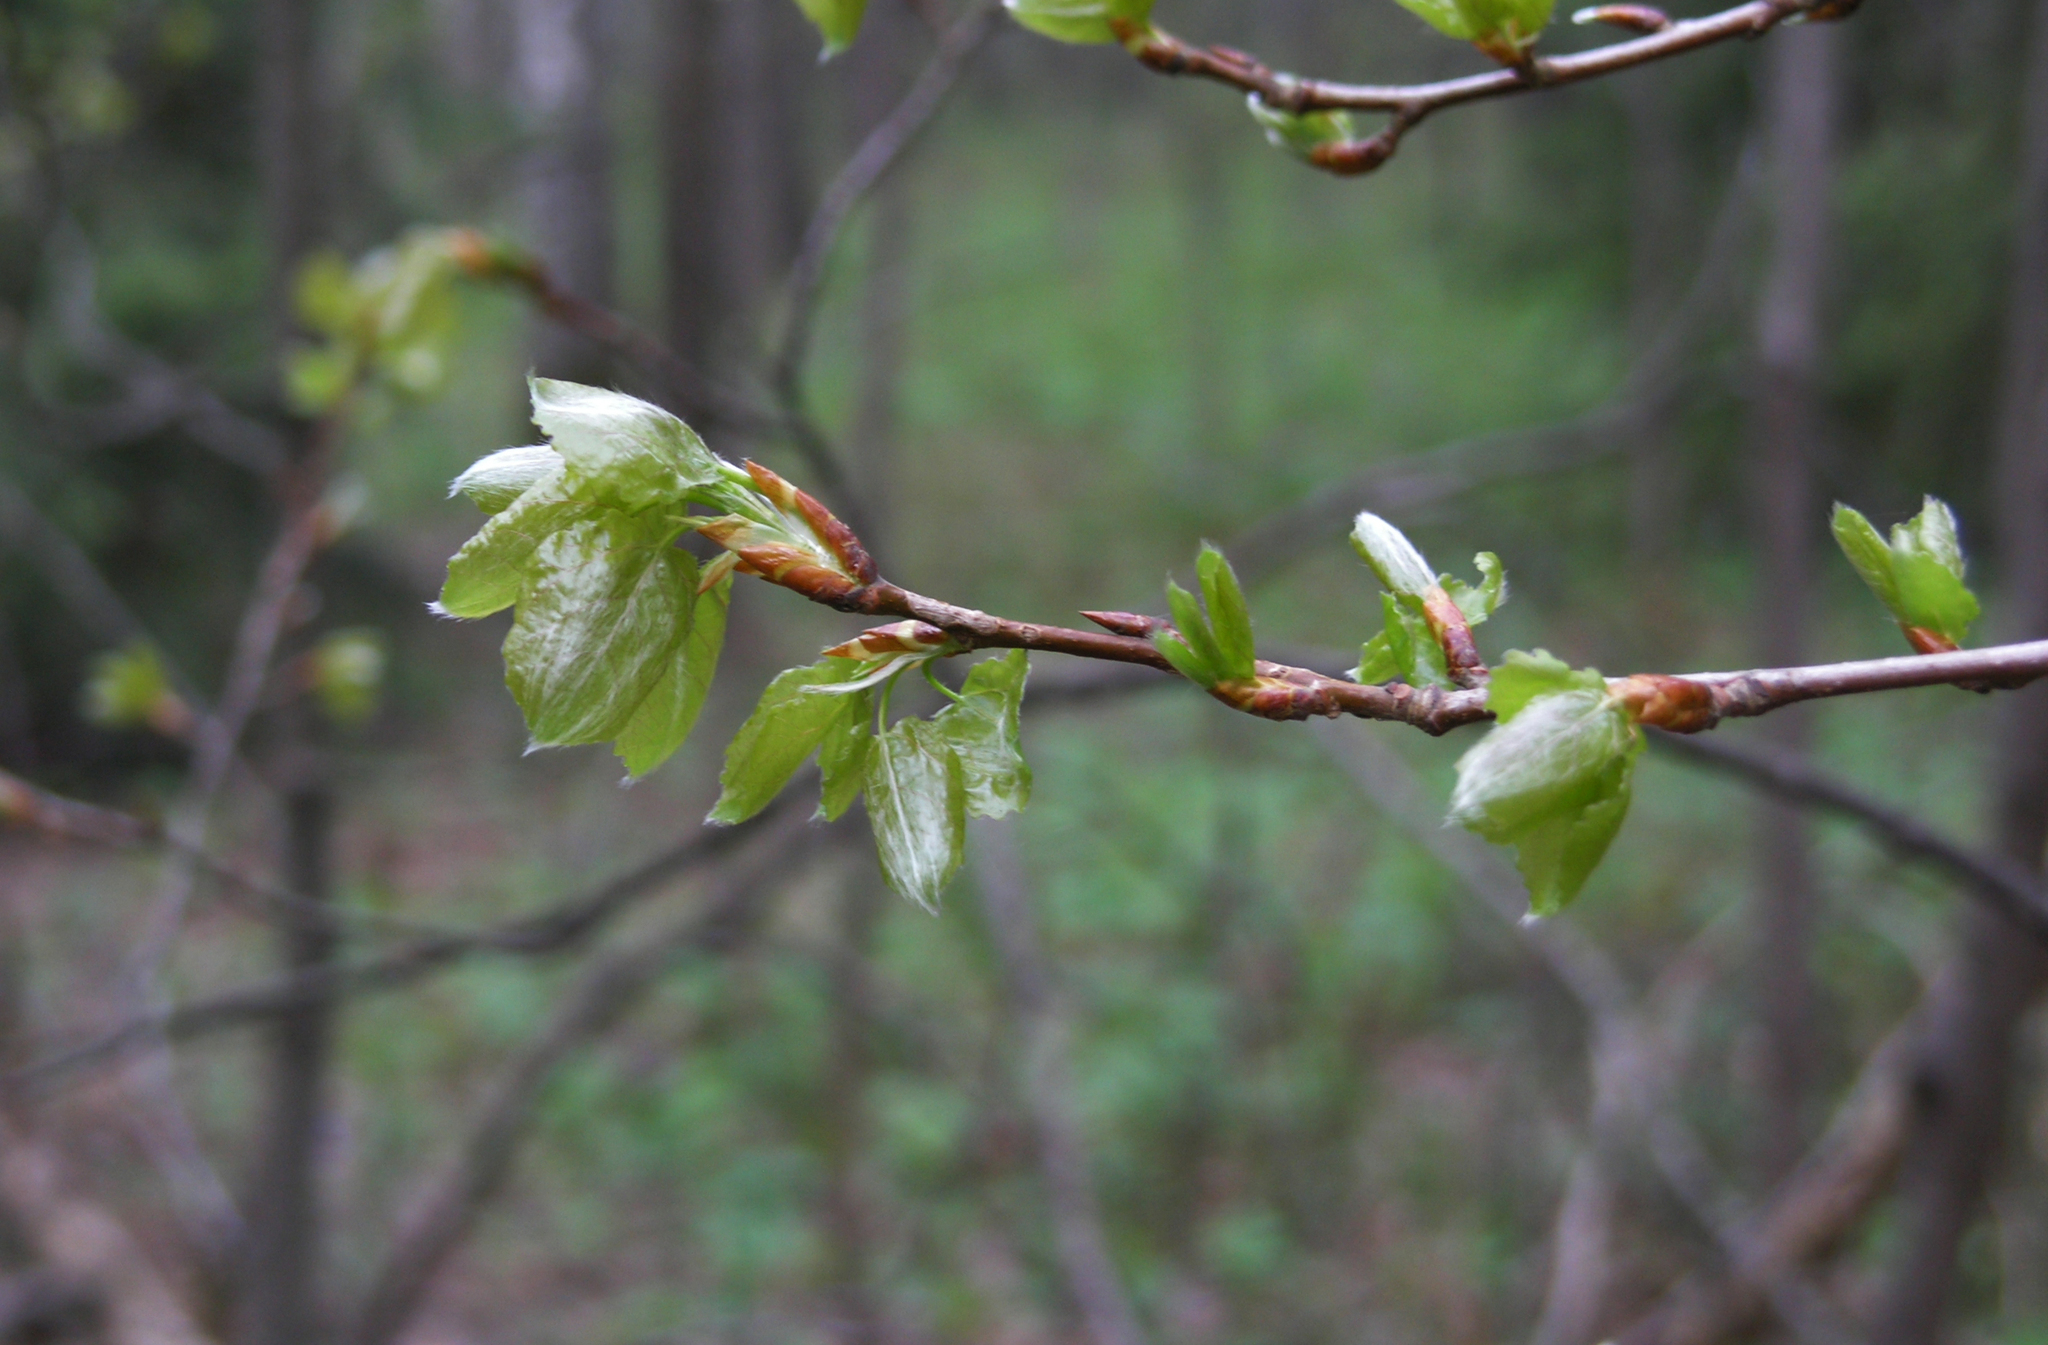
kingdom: Plantae
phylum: Tracheophyta
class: Magnoliopsida
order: Malpighiales
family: Salicaceae
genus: Populus
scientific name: Populus tremula
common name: European aspen
